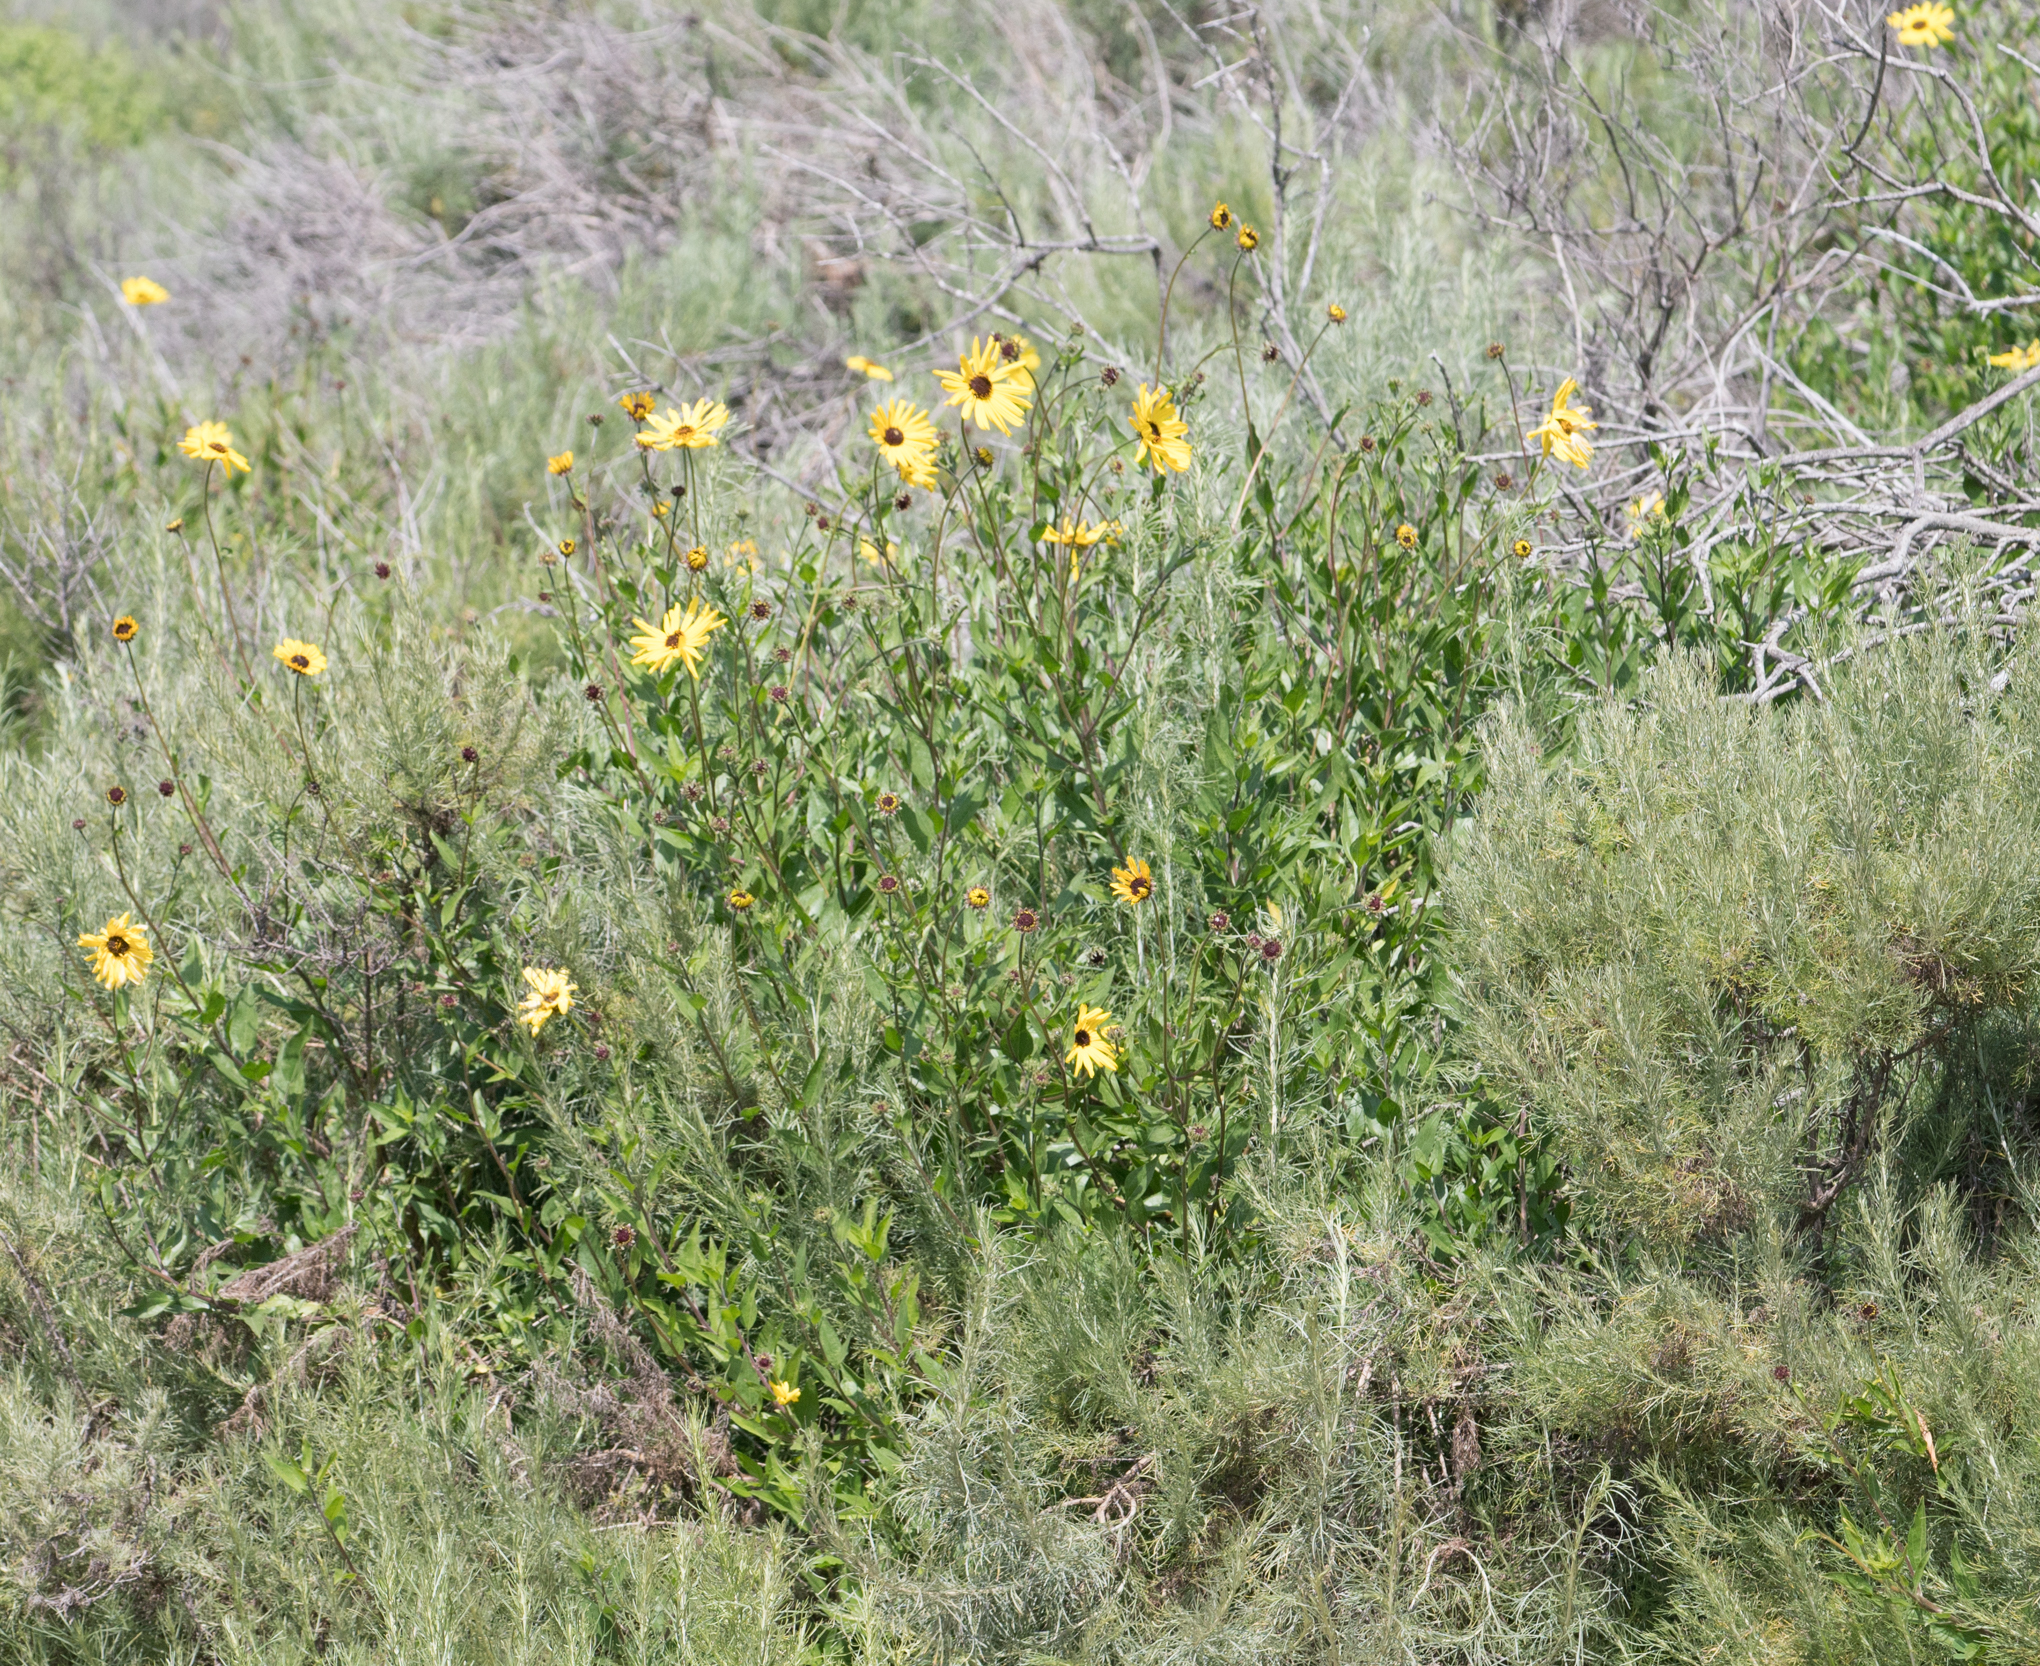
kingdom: Plantae
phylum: Tracheophyta
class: Magnoliopsida
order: Asterales
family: Asteraceae
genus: Encelia
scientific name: Encelia californica
